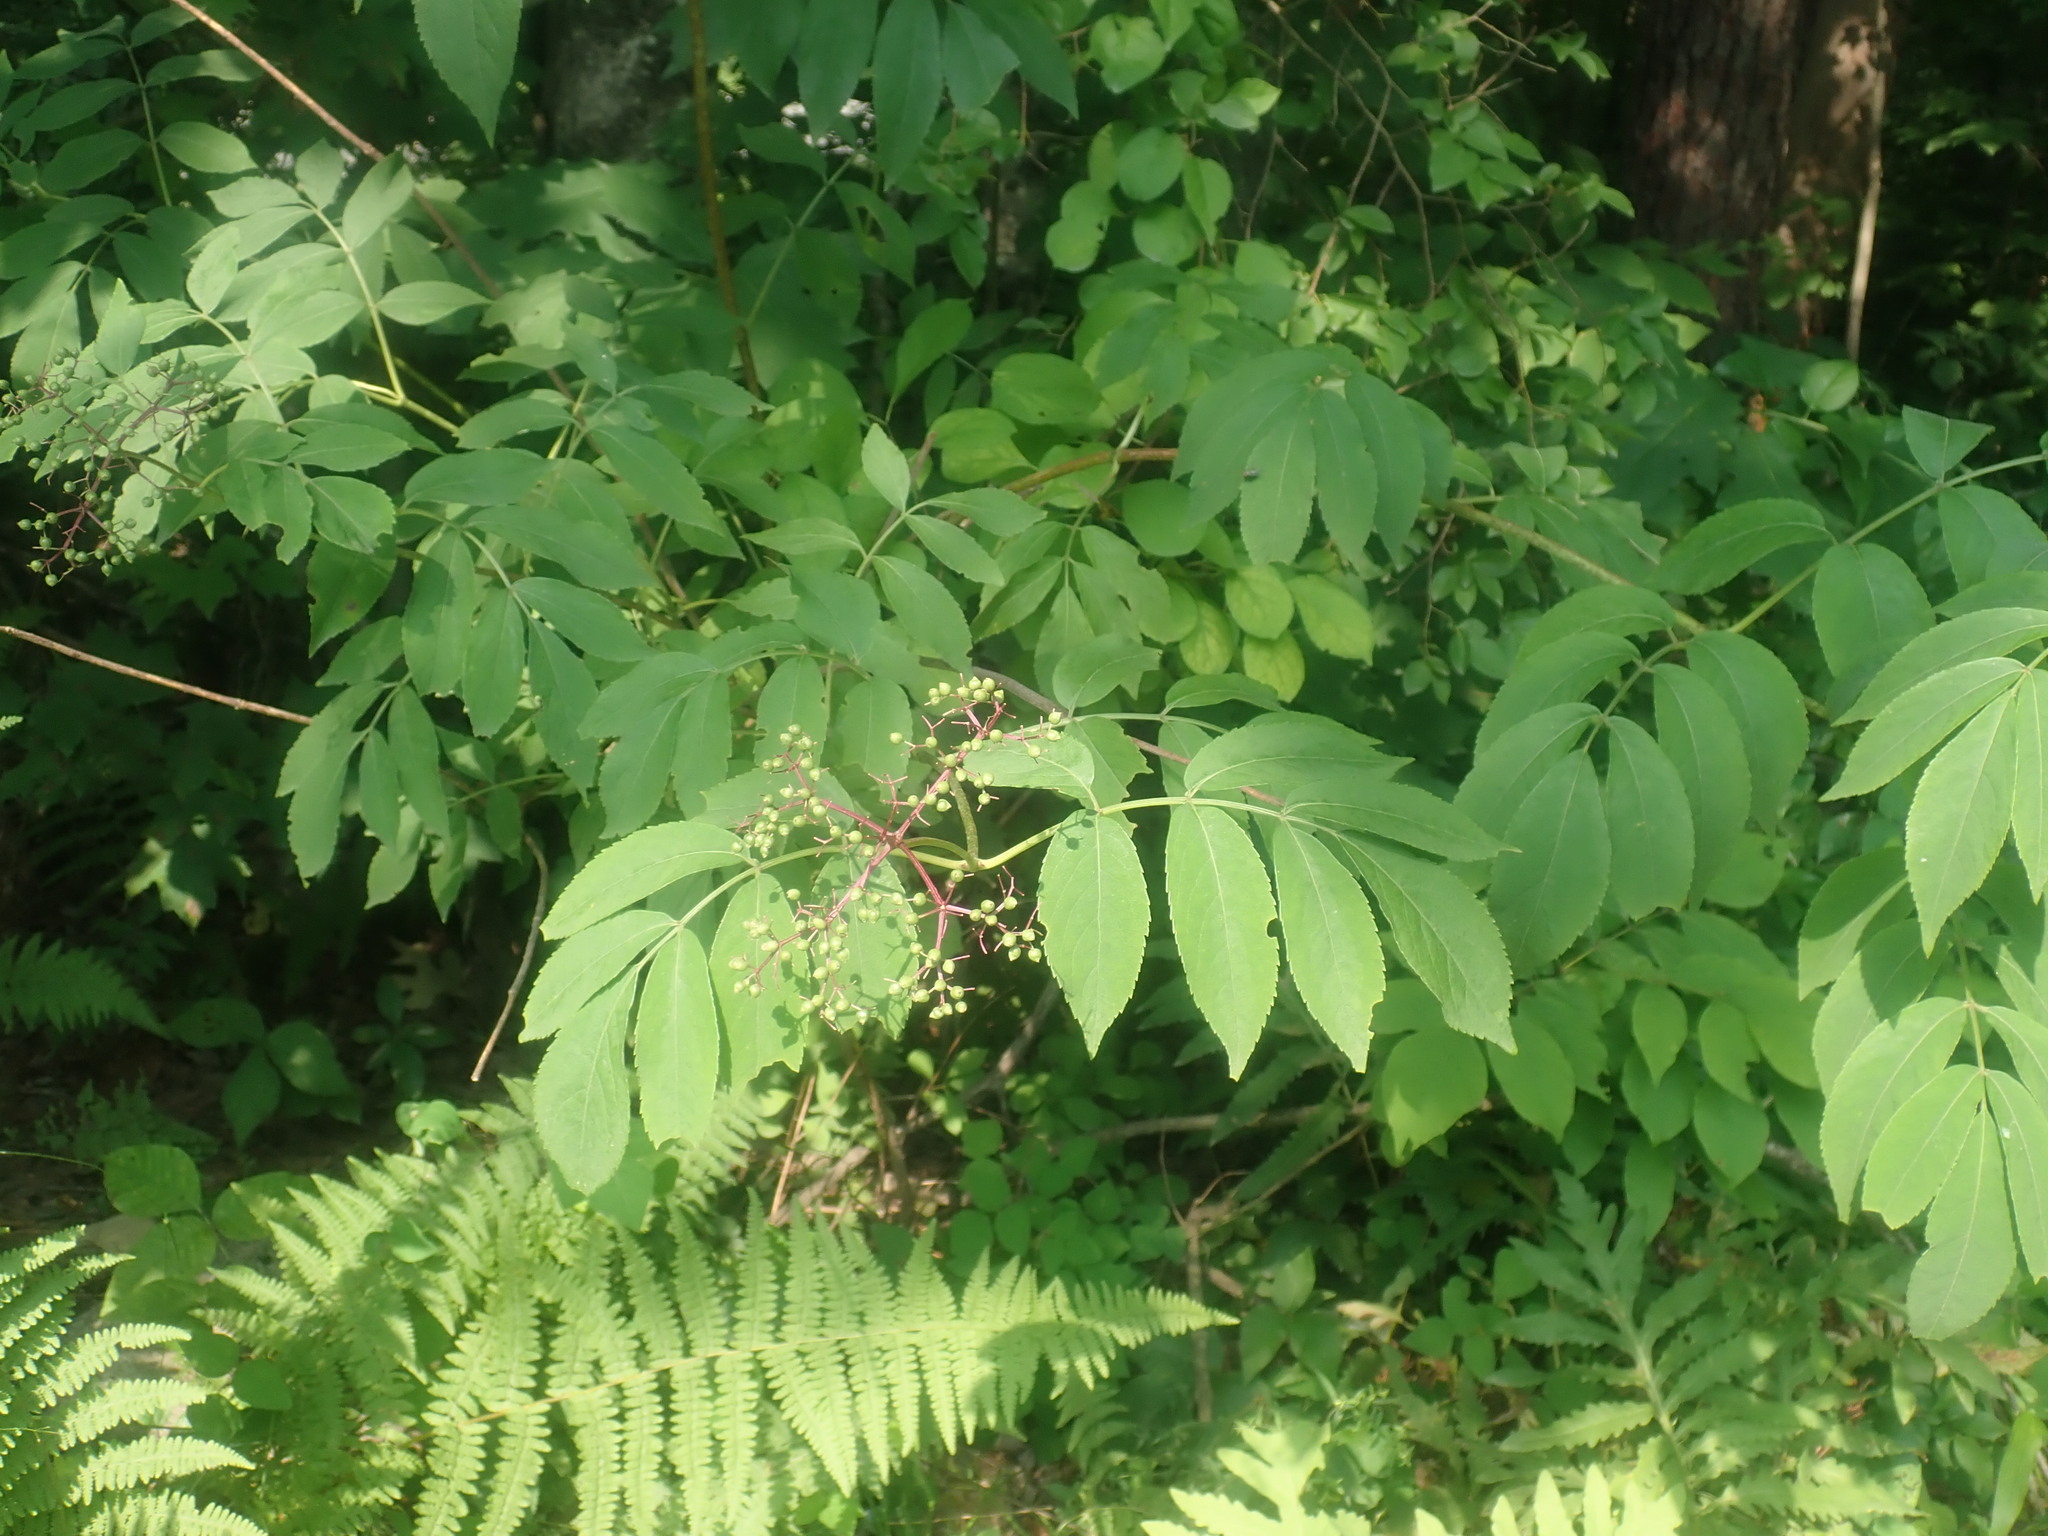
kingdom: Plantae
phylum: Tracheophyta
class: Magnoliopsida
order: Dipsacales
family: Viburnaceae
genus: Sambucus
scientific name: Sambucus canadensis
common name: American elder
